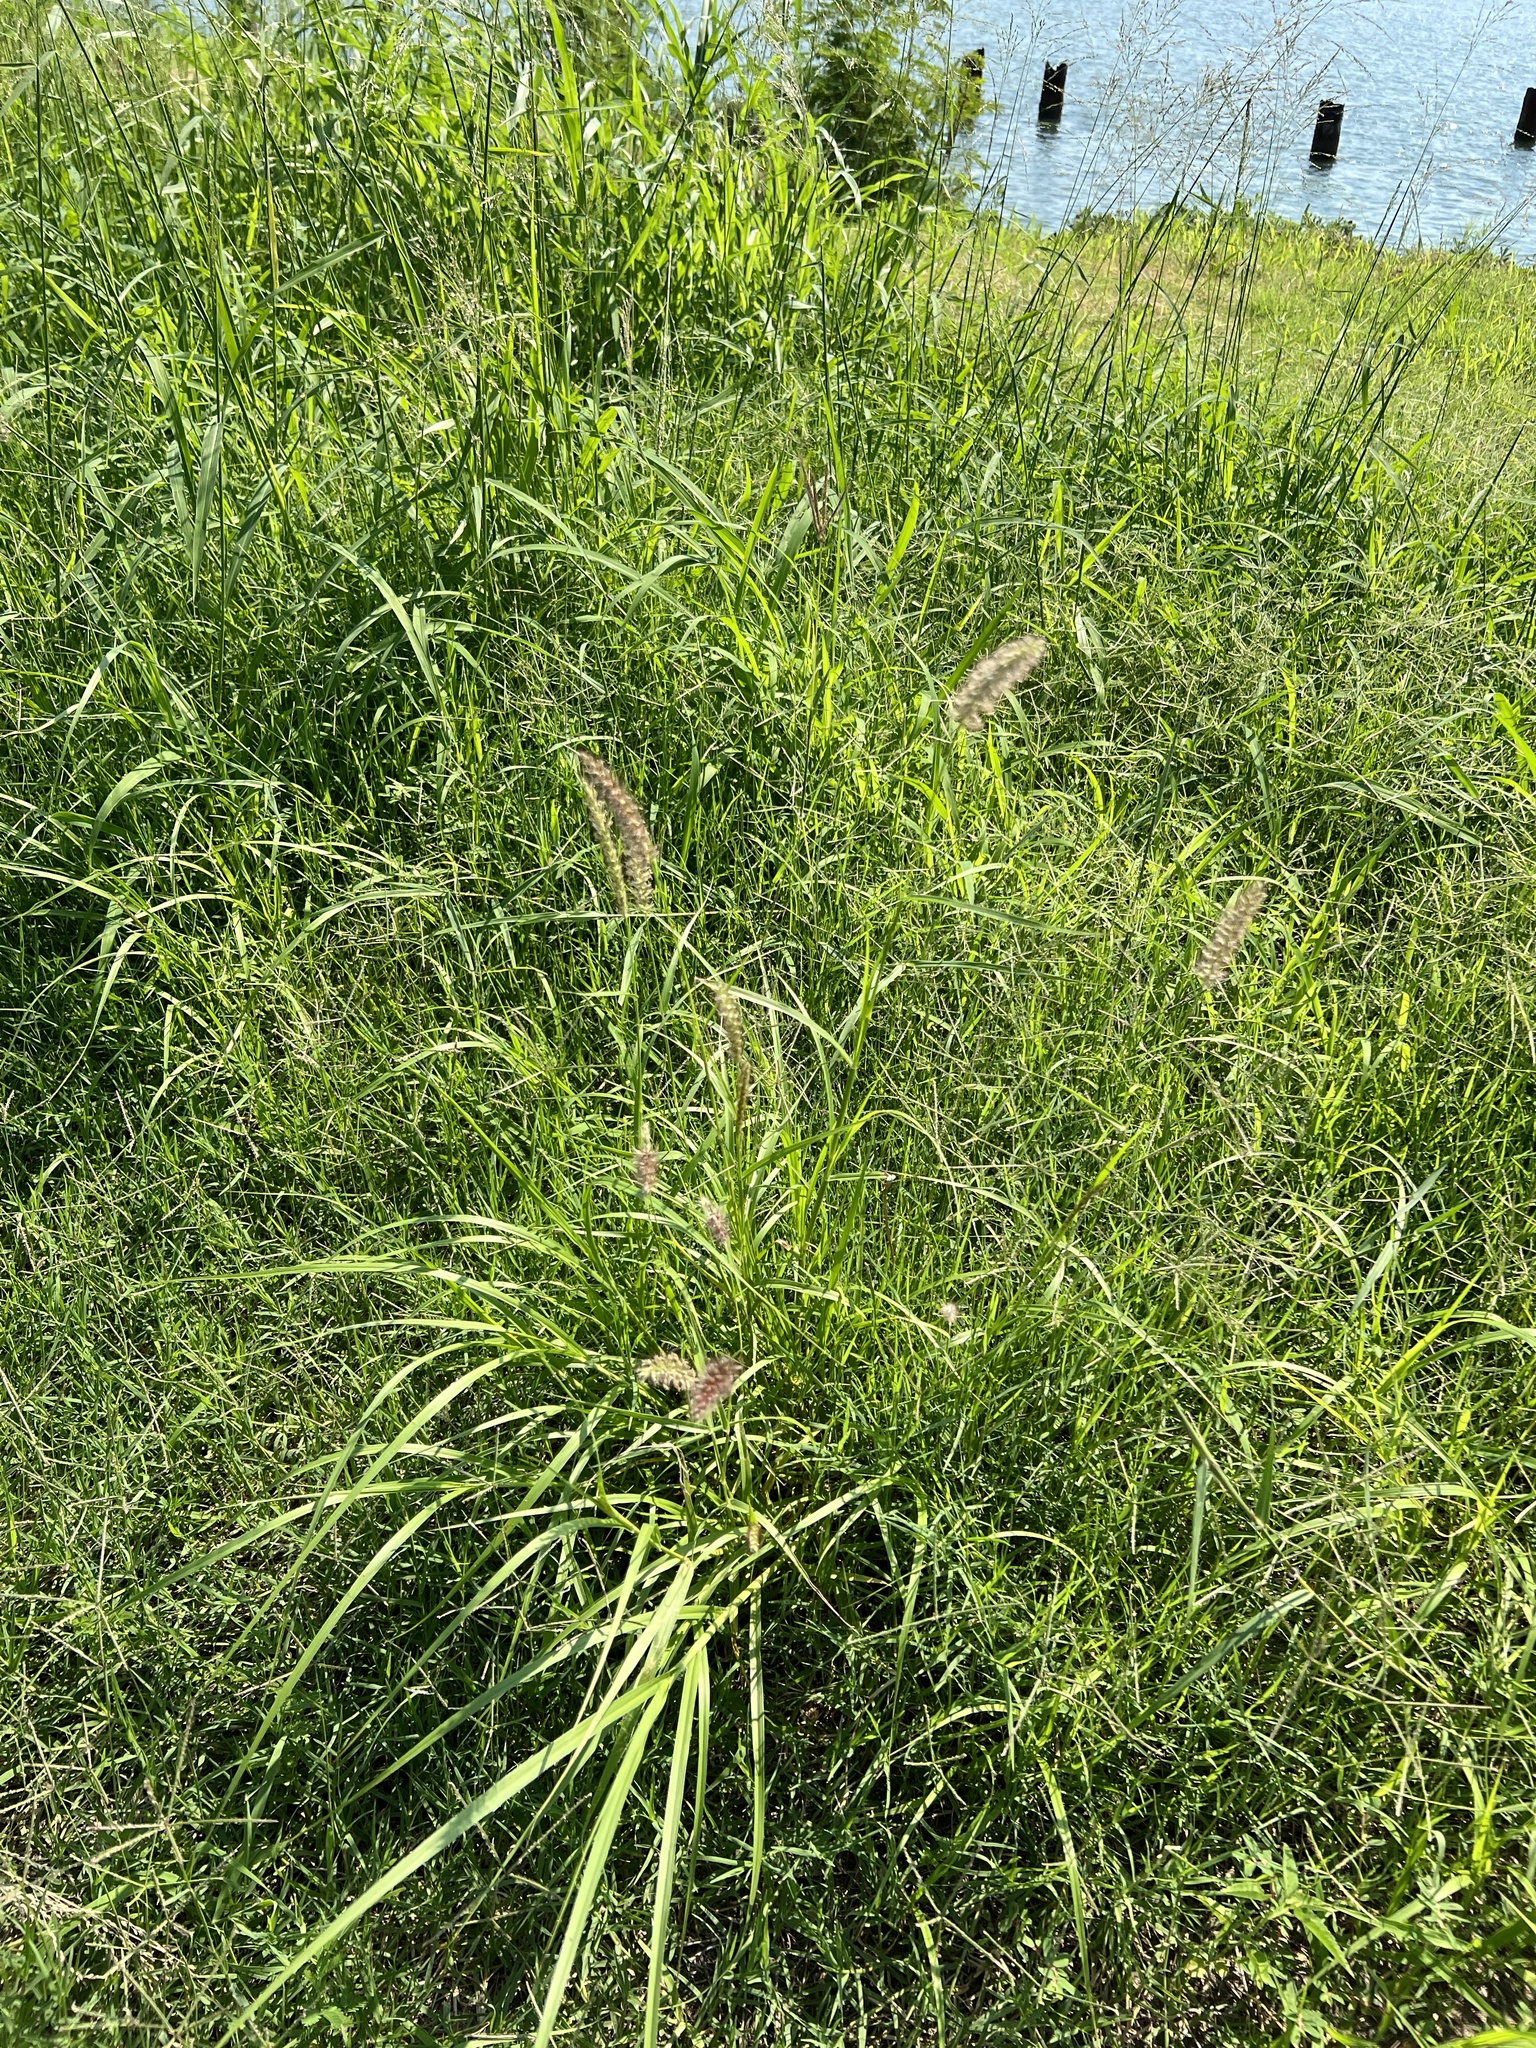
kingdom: Plantae
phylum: Tracheophyta
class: Liliopsida
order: Poales
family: Poaceae
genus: Cenchrus
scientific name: Cenchrus ciliaris
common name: Buffelgrass
